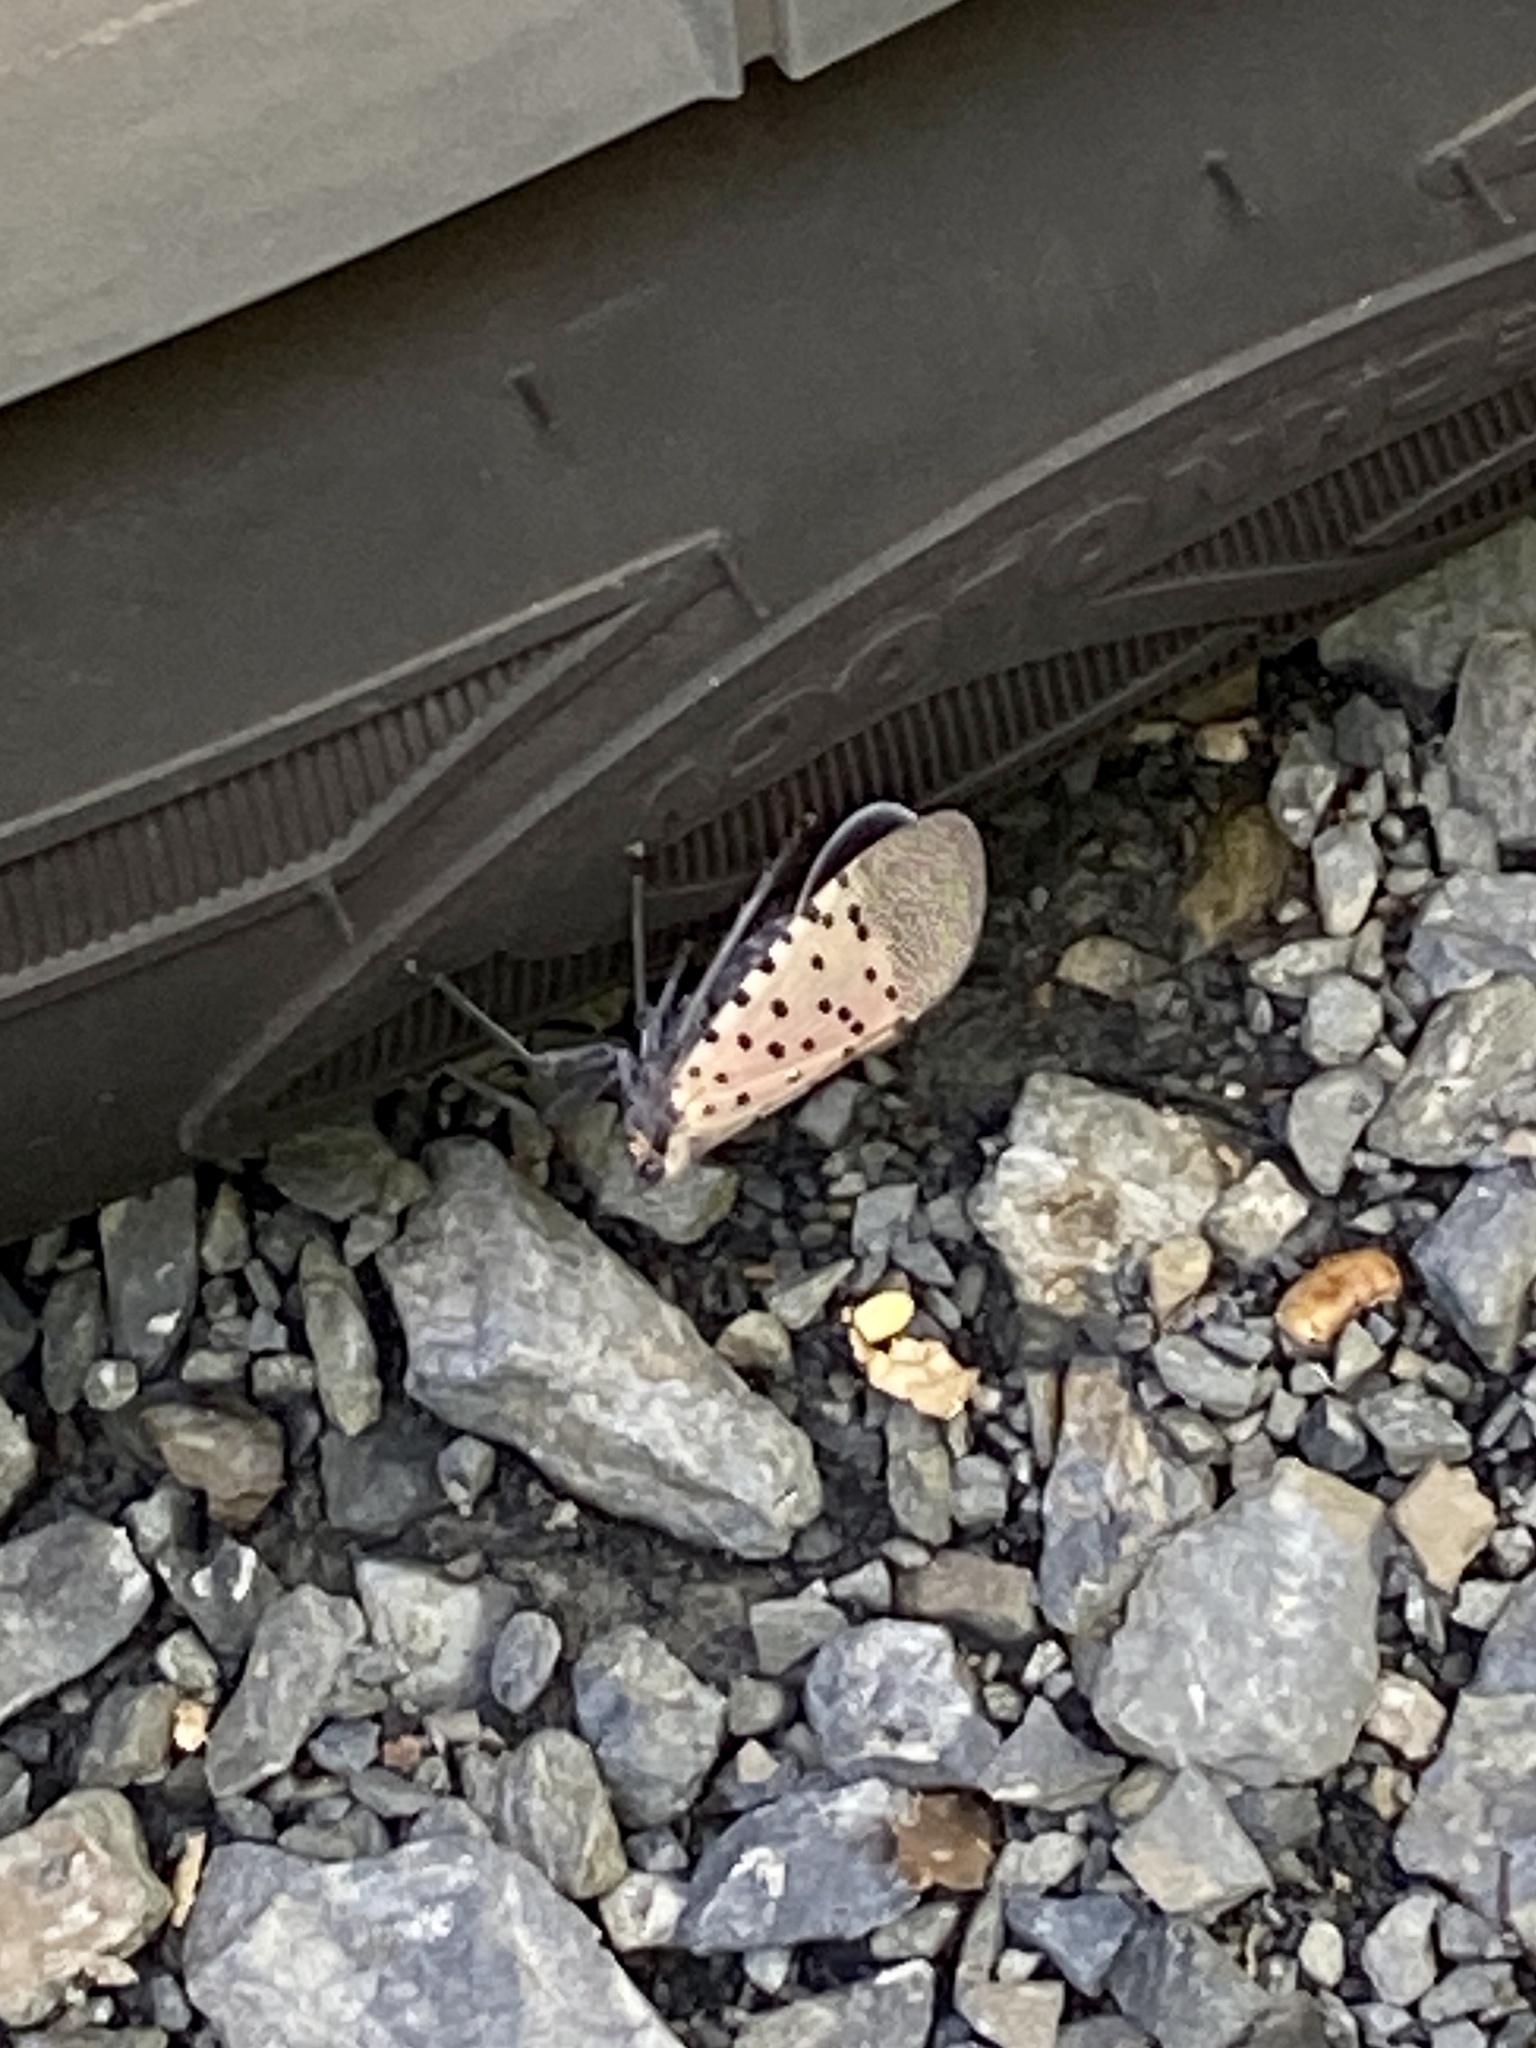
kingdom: Animalia
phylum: Arthropoda
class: Insecta
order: Hemiptera
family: Fulgoridae
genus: Lycorma
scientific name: Lycorma delicatula
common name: Spotted lanternfly
